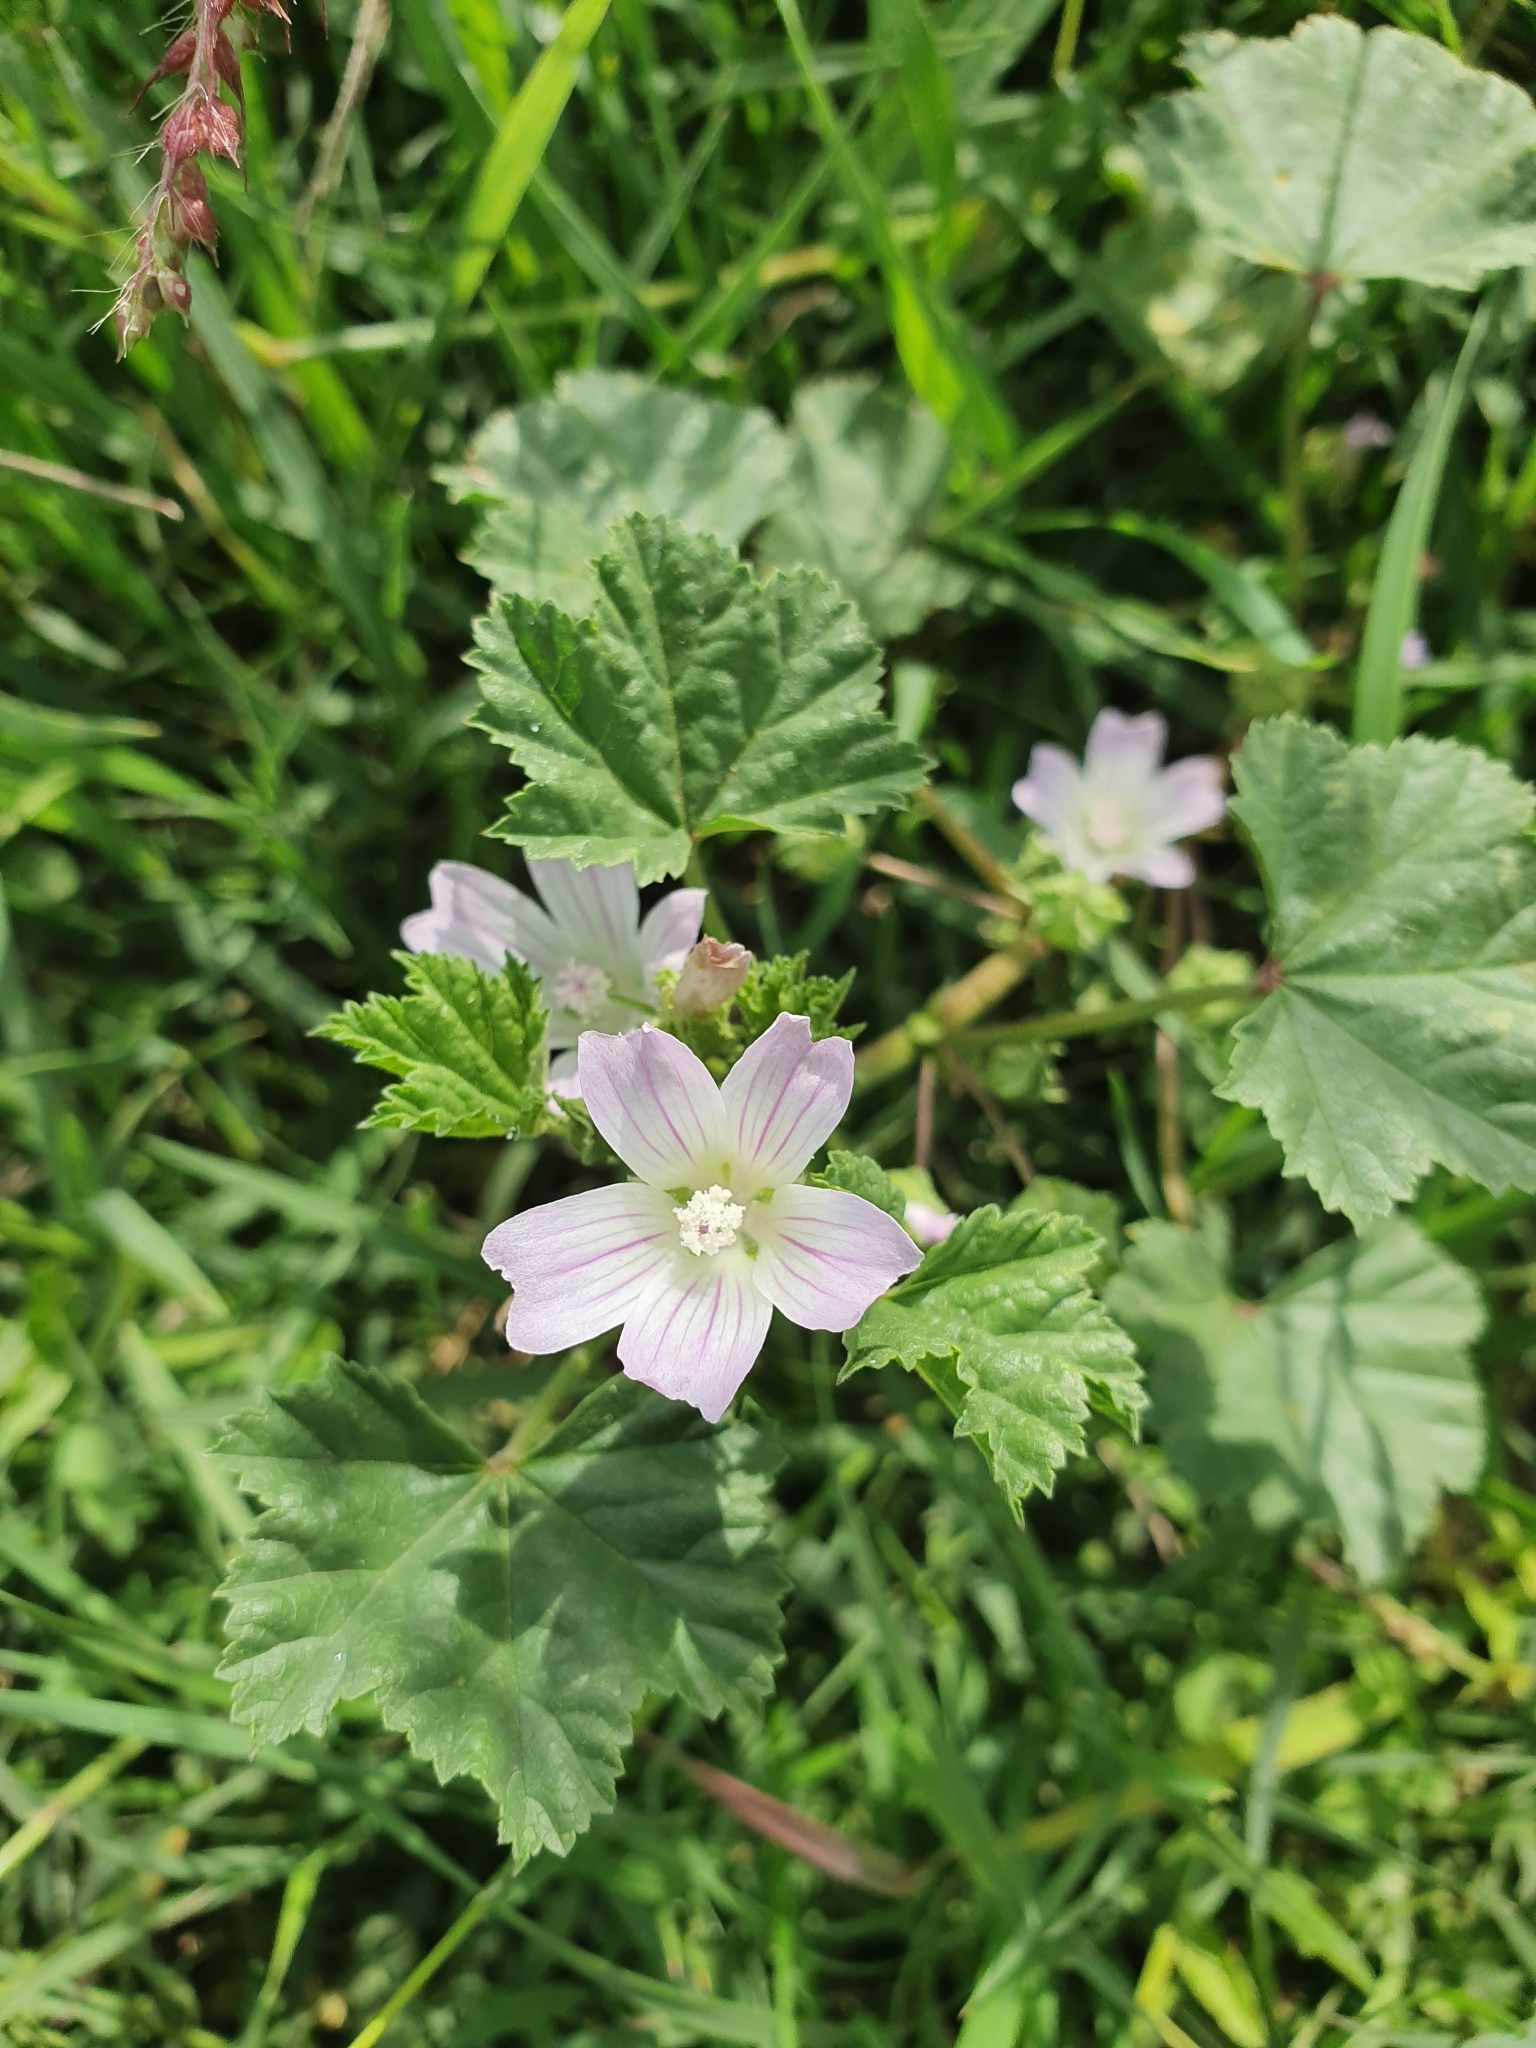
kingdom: Plantae
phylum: Tracheophyta
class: Magnoliopsida
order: Malvales
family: Malvaceae
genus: Malva
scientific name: Malva neglecta
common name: Common mallow
